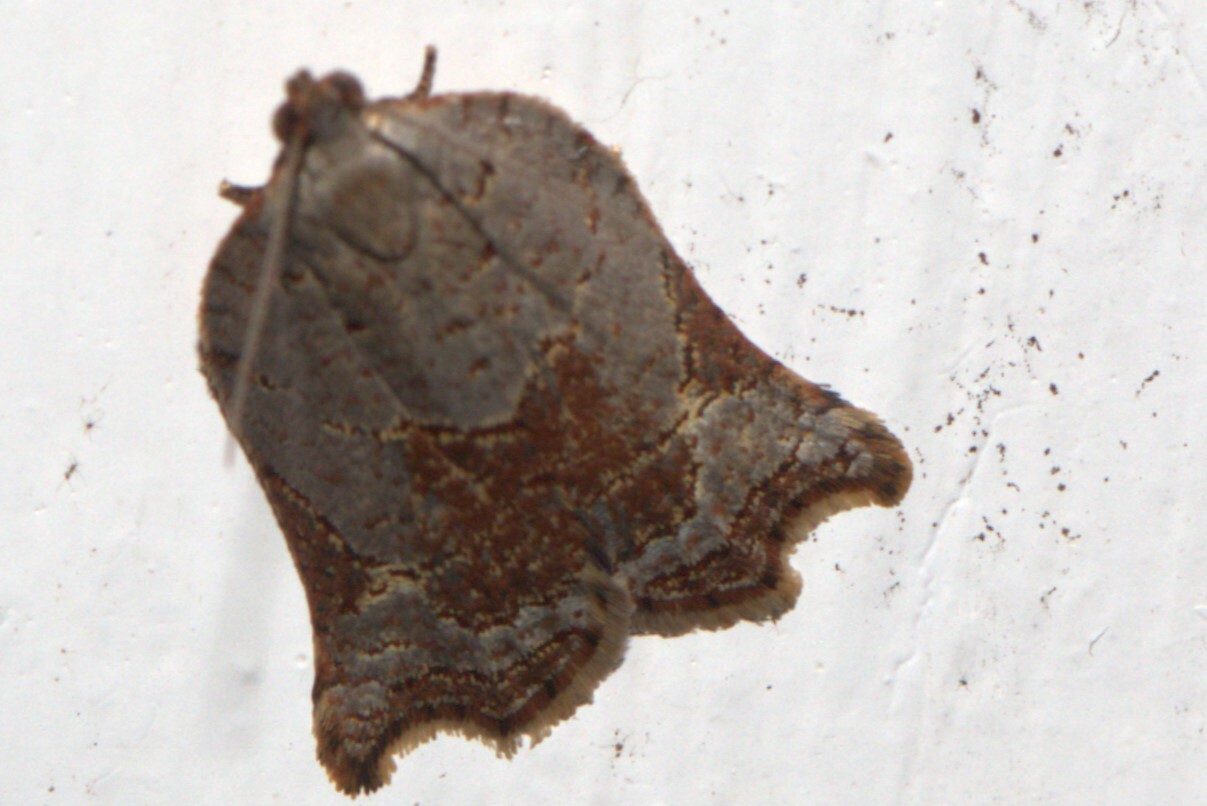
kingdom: Animalia
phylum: Arthropoda
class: Insecta
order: Lepidoptera
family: Tortricidae
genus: Anisogona
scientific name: Anisogona simana
